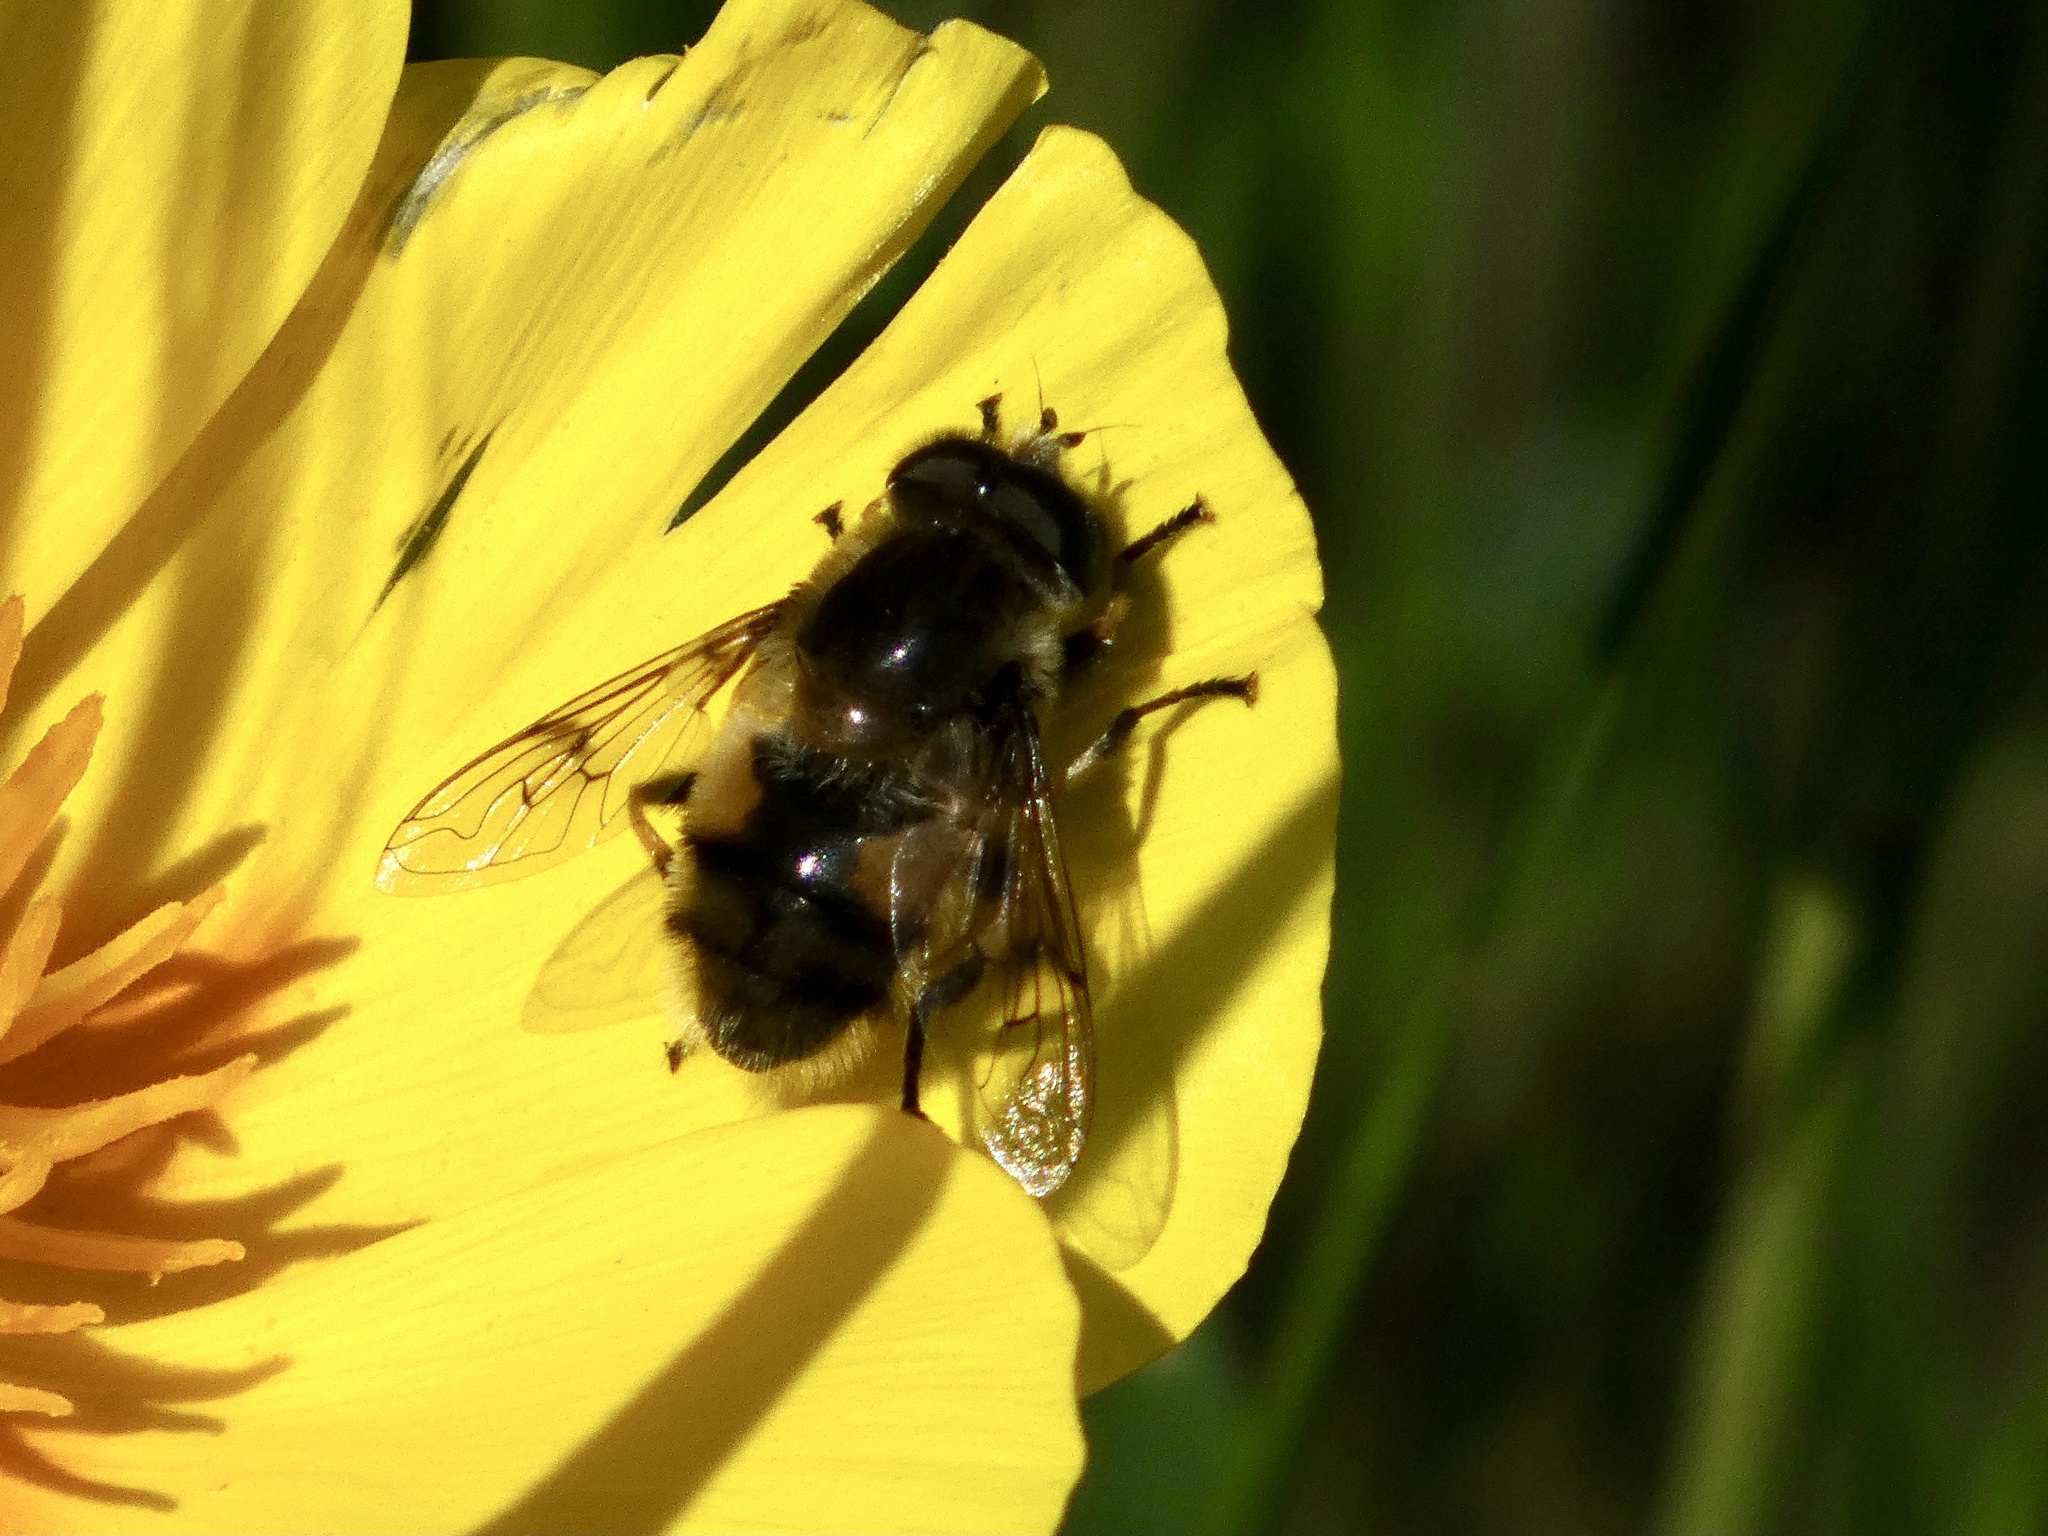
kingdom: Animalia
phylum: Arthropoda
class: Insecta
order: Diptera
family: Syrphidae
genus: Eristalis
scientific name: Eristalis anthophorina
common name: Orange-spotted drone fly
